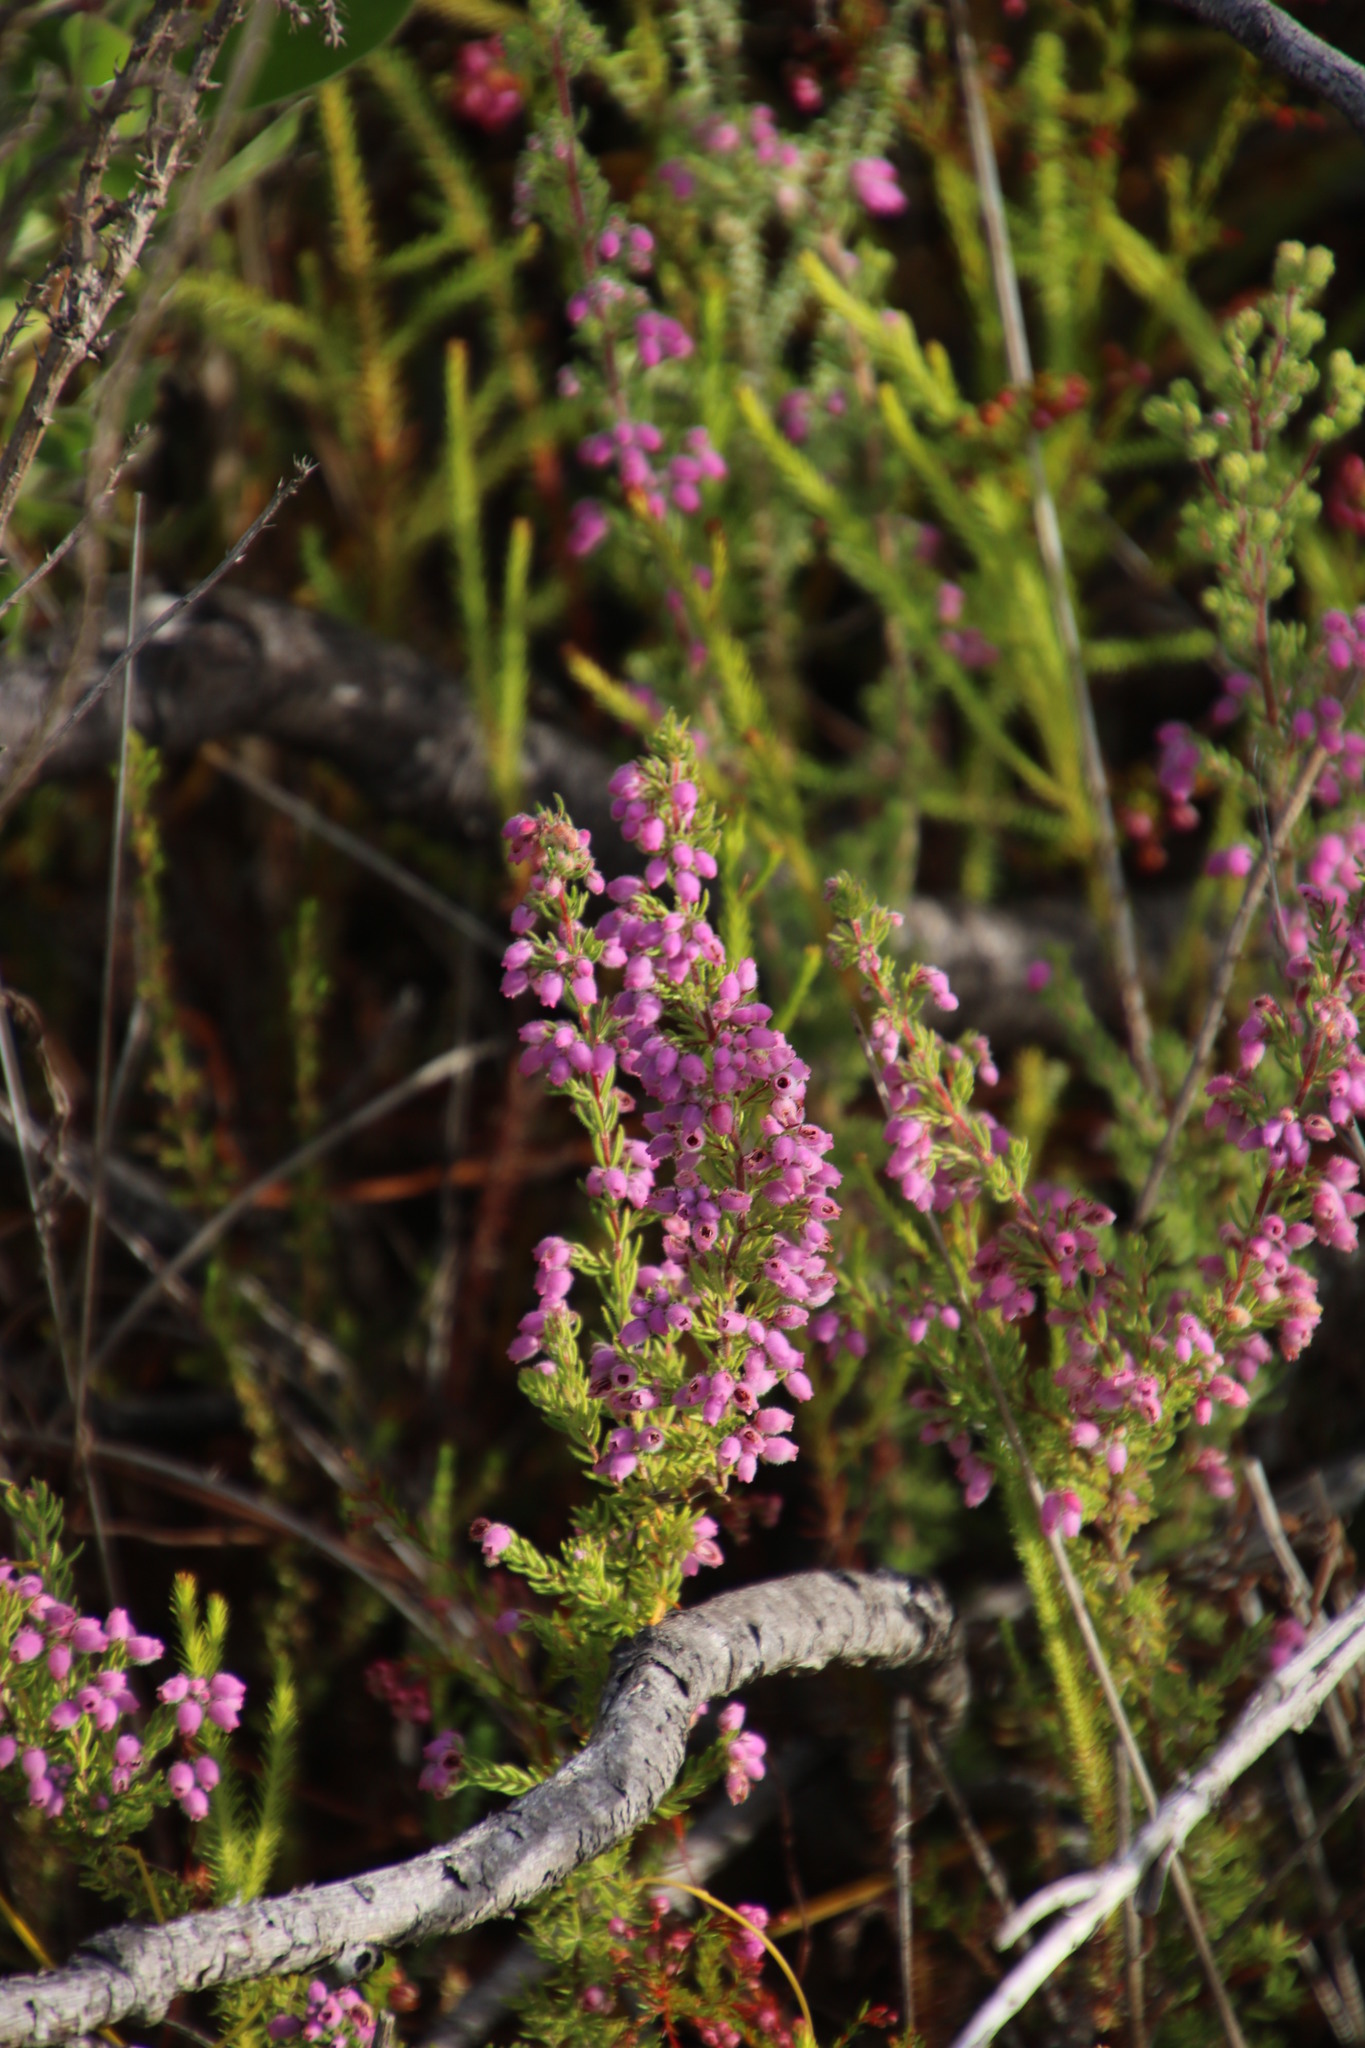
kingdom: Plantae
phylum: Tracheophyta
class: Magnoliopsida
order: Ericales
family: Ericaceae
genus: Erica
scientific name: Erica hirtiflora
